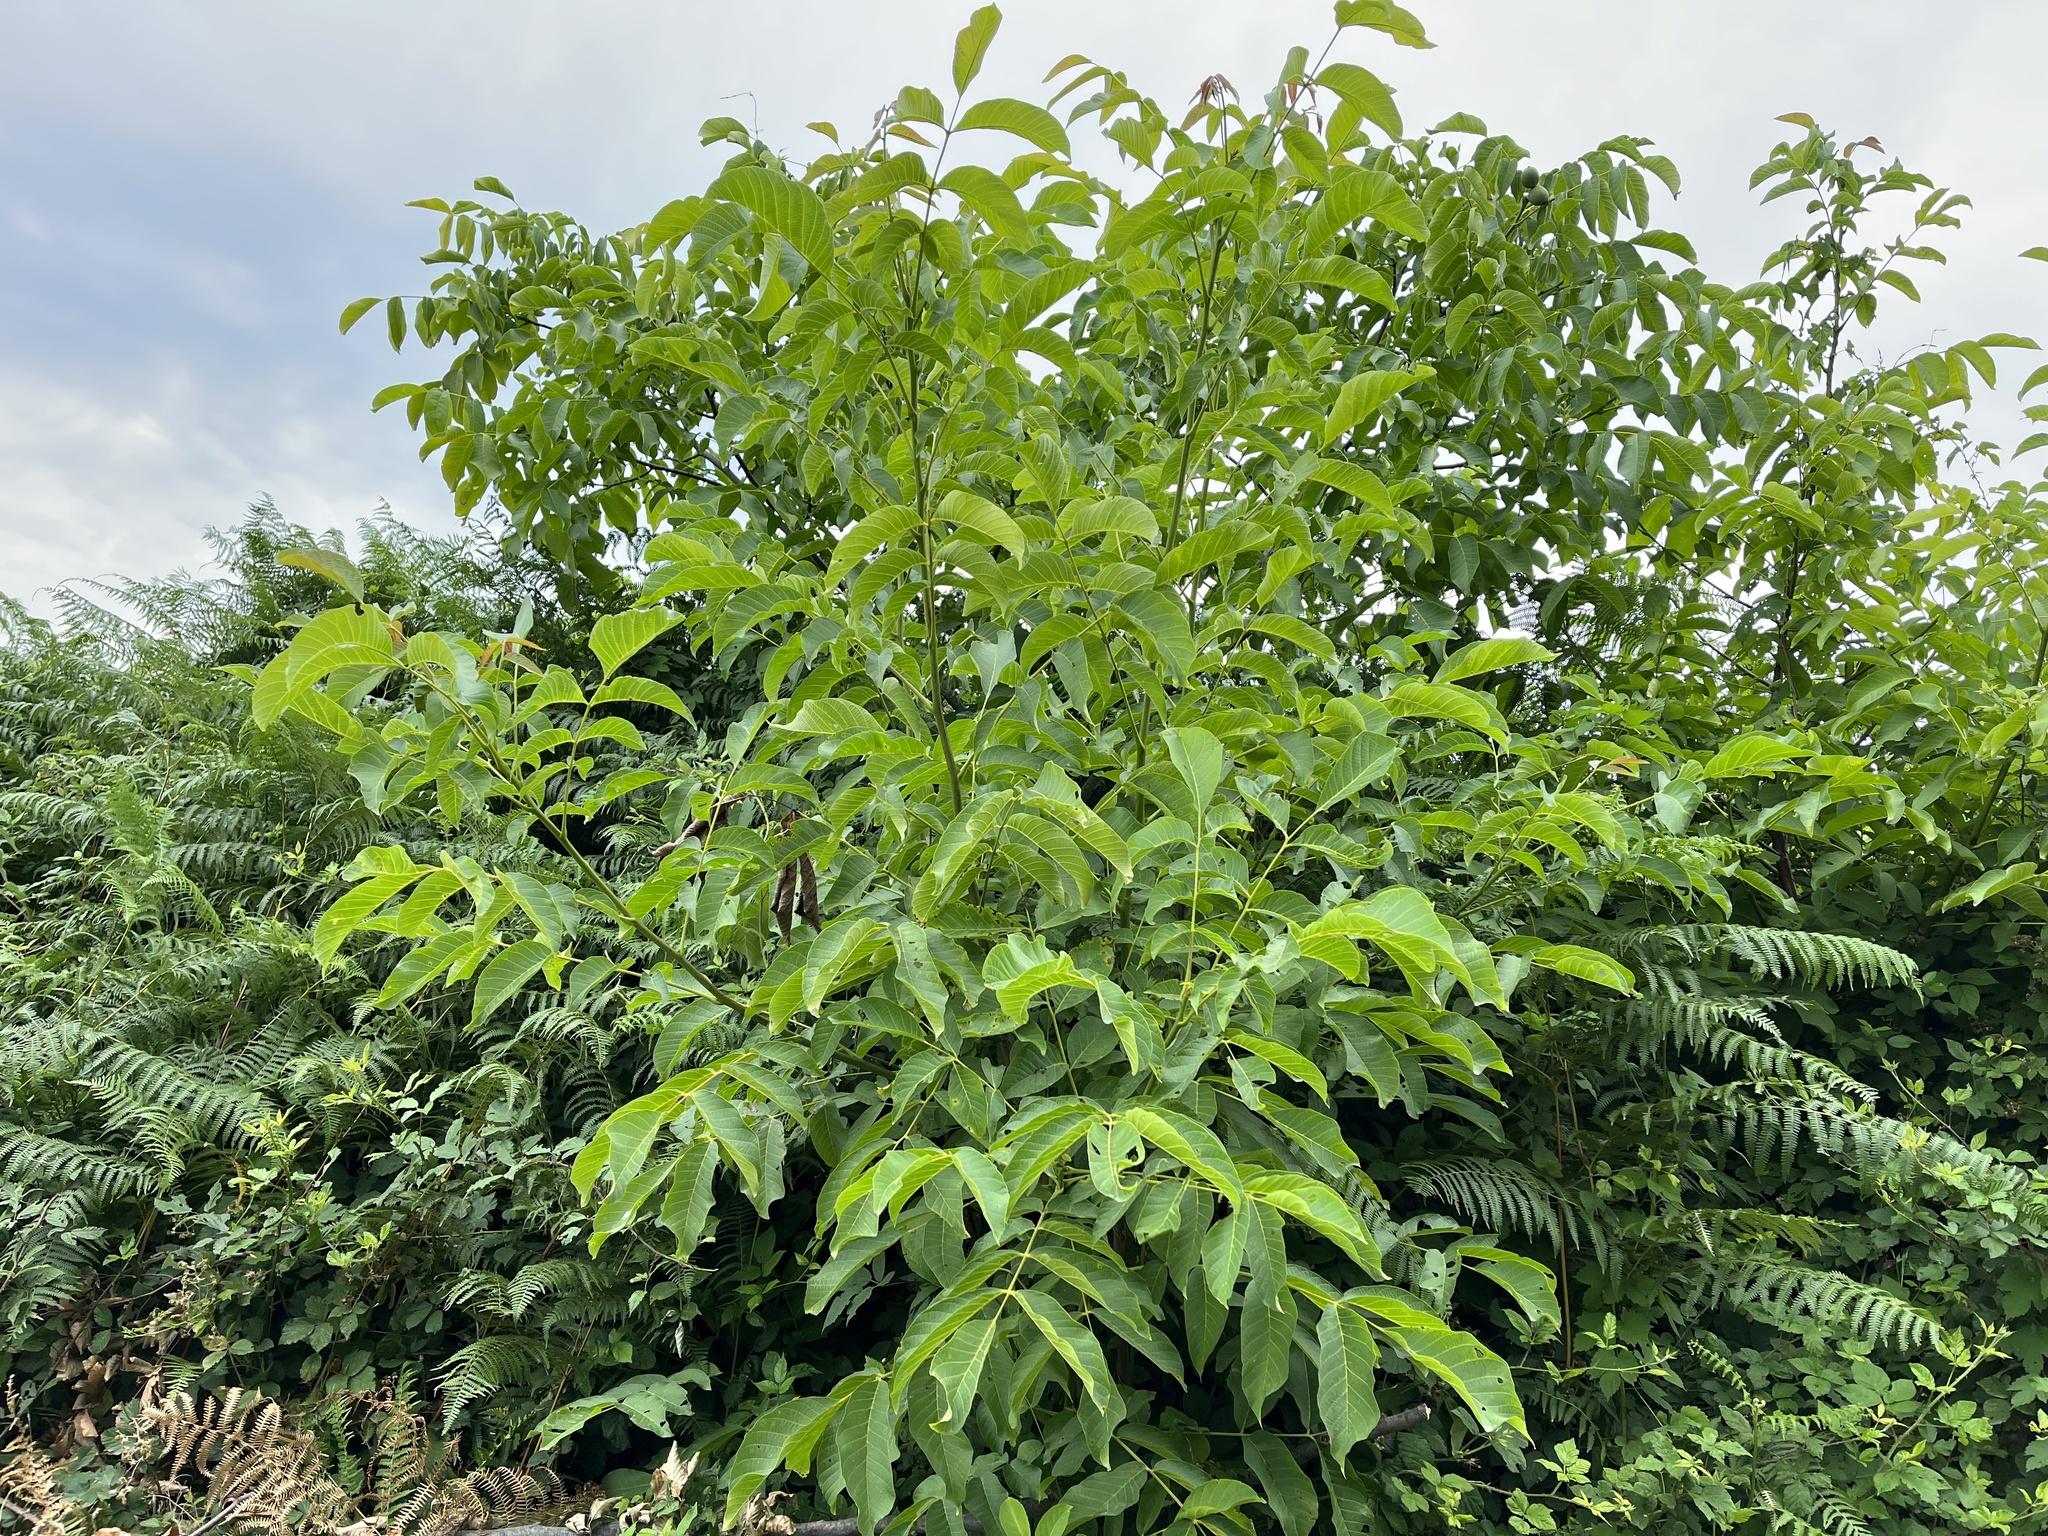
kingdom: Plantae
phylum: Tracheophyta
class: Magnoliopsida
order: Fagales
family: Juglandaceae
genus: Juglans
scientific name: Juglans regia
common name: Walnut
